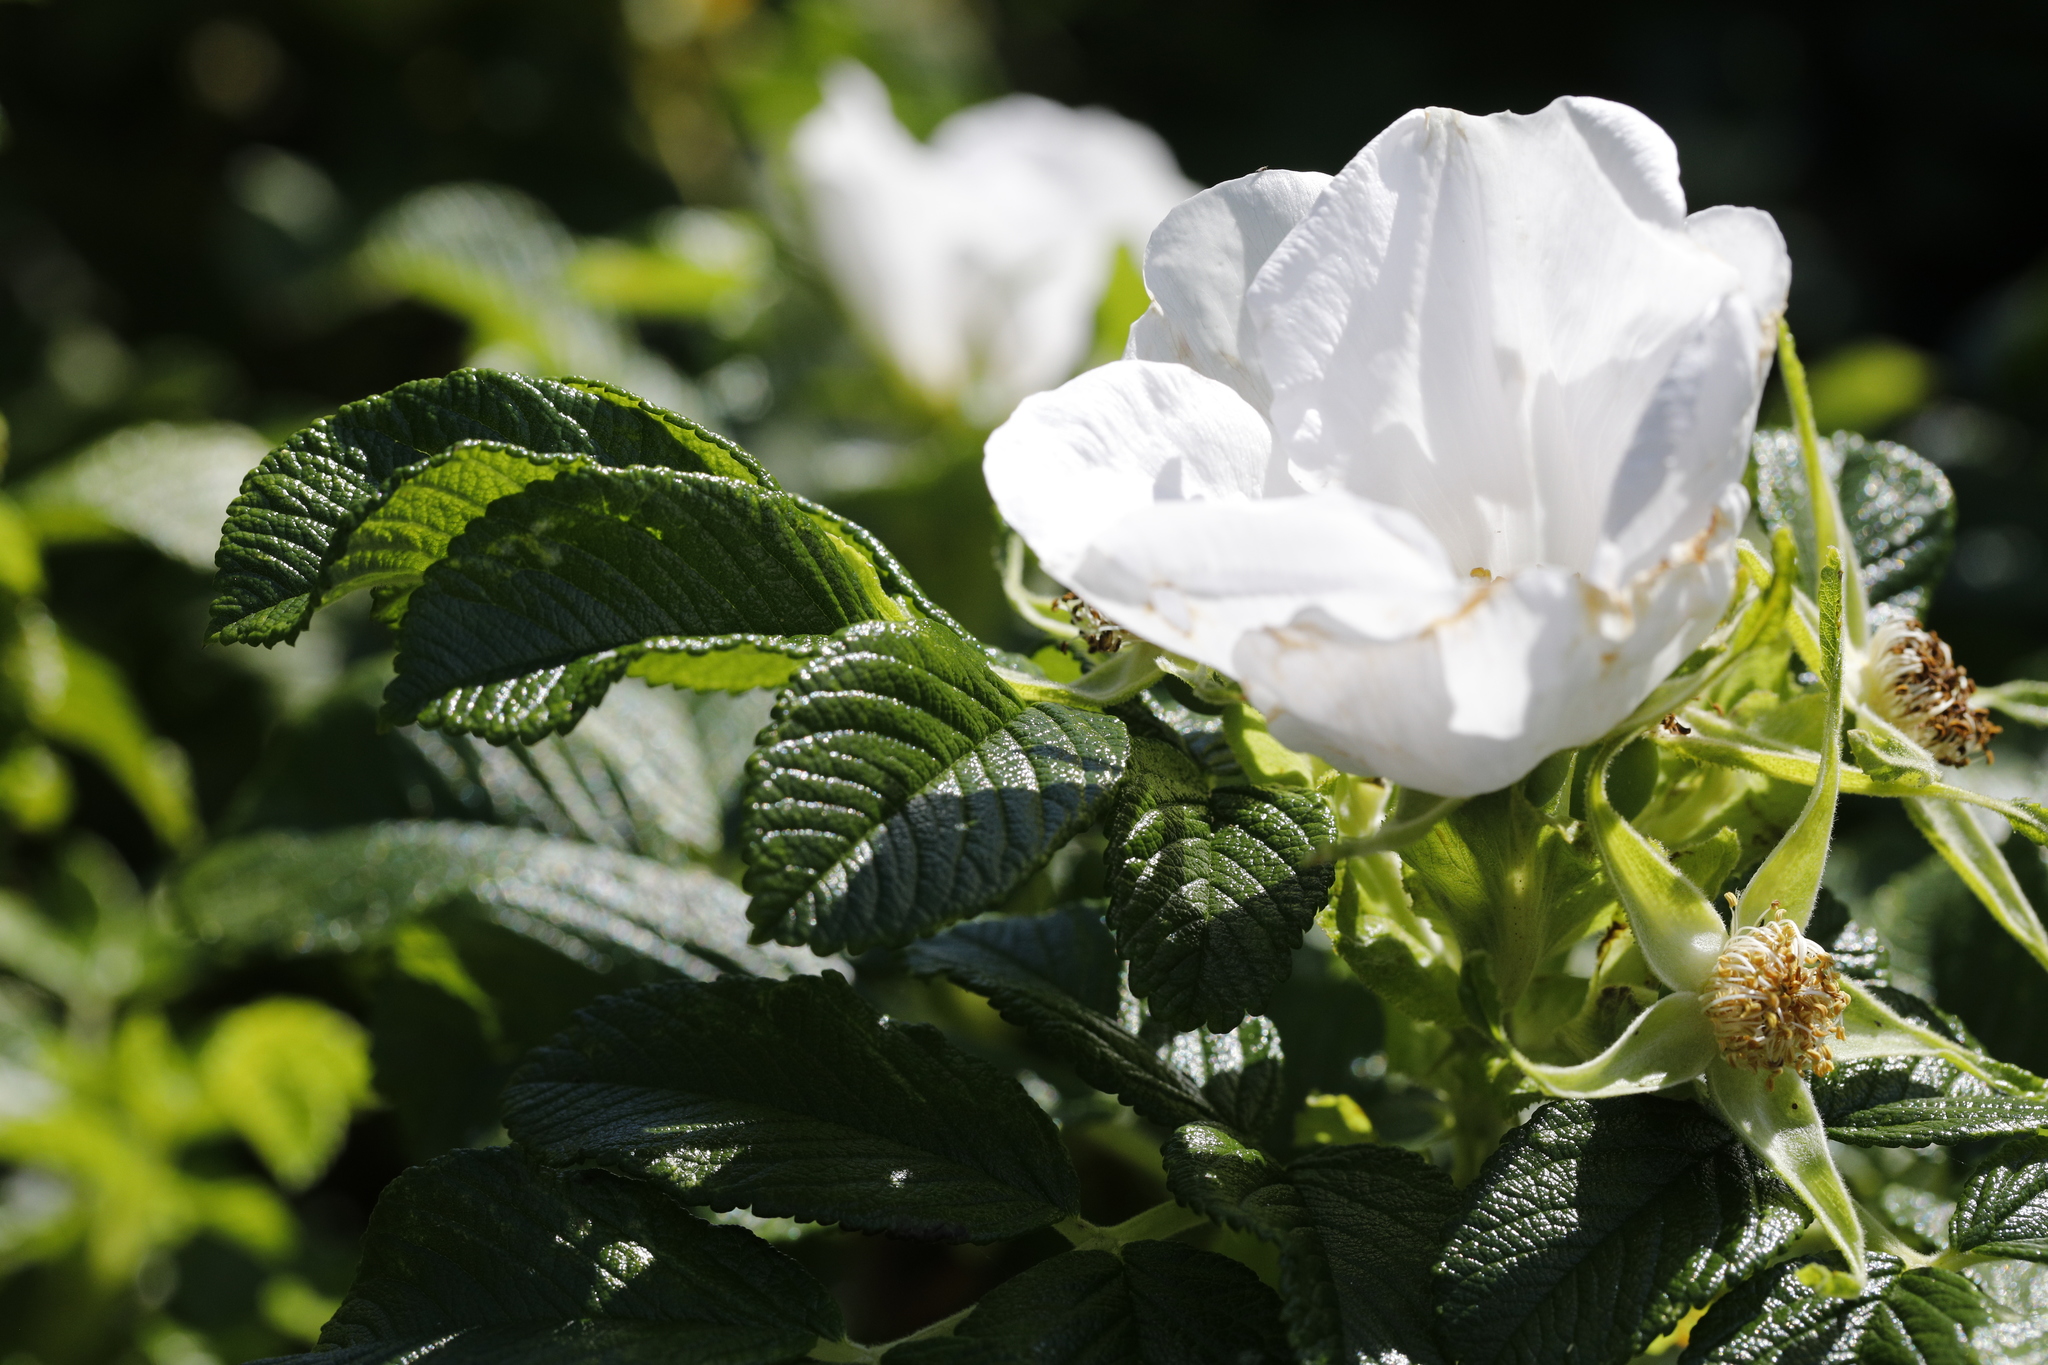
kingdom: Plantae
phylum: Tracheophyta
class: Magnoliopsida
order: Rosales
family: Rosaceae
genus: Rosa
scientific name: Rosa rugosa
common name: Japanese rose
